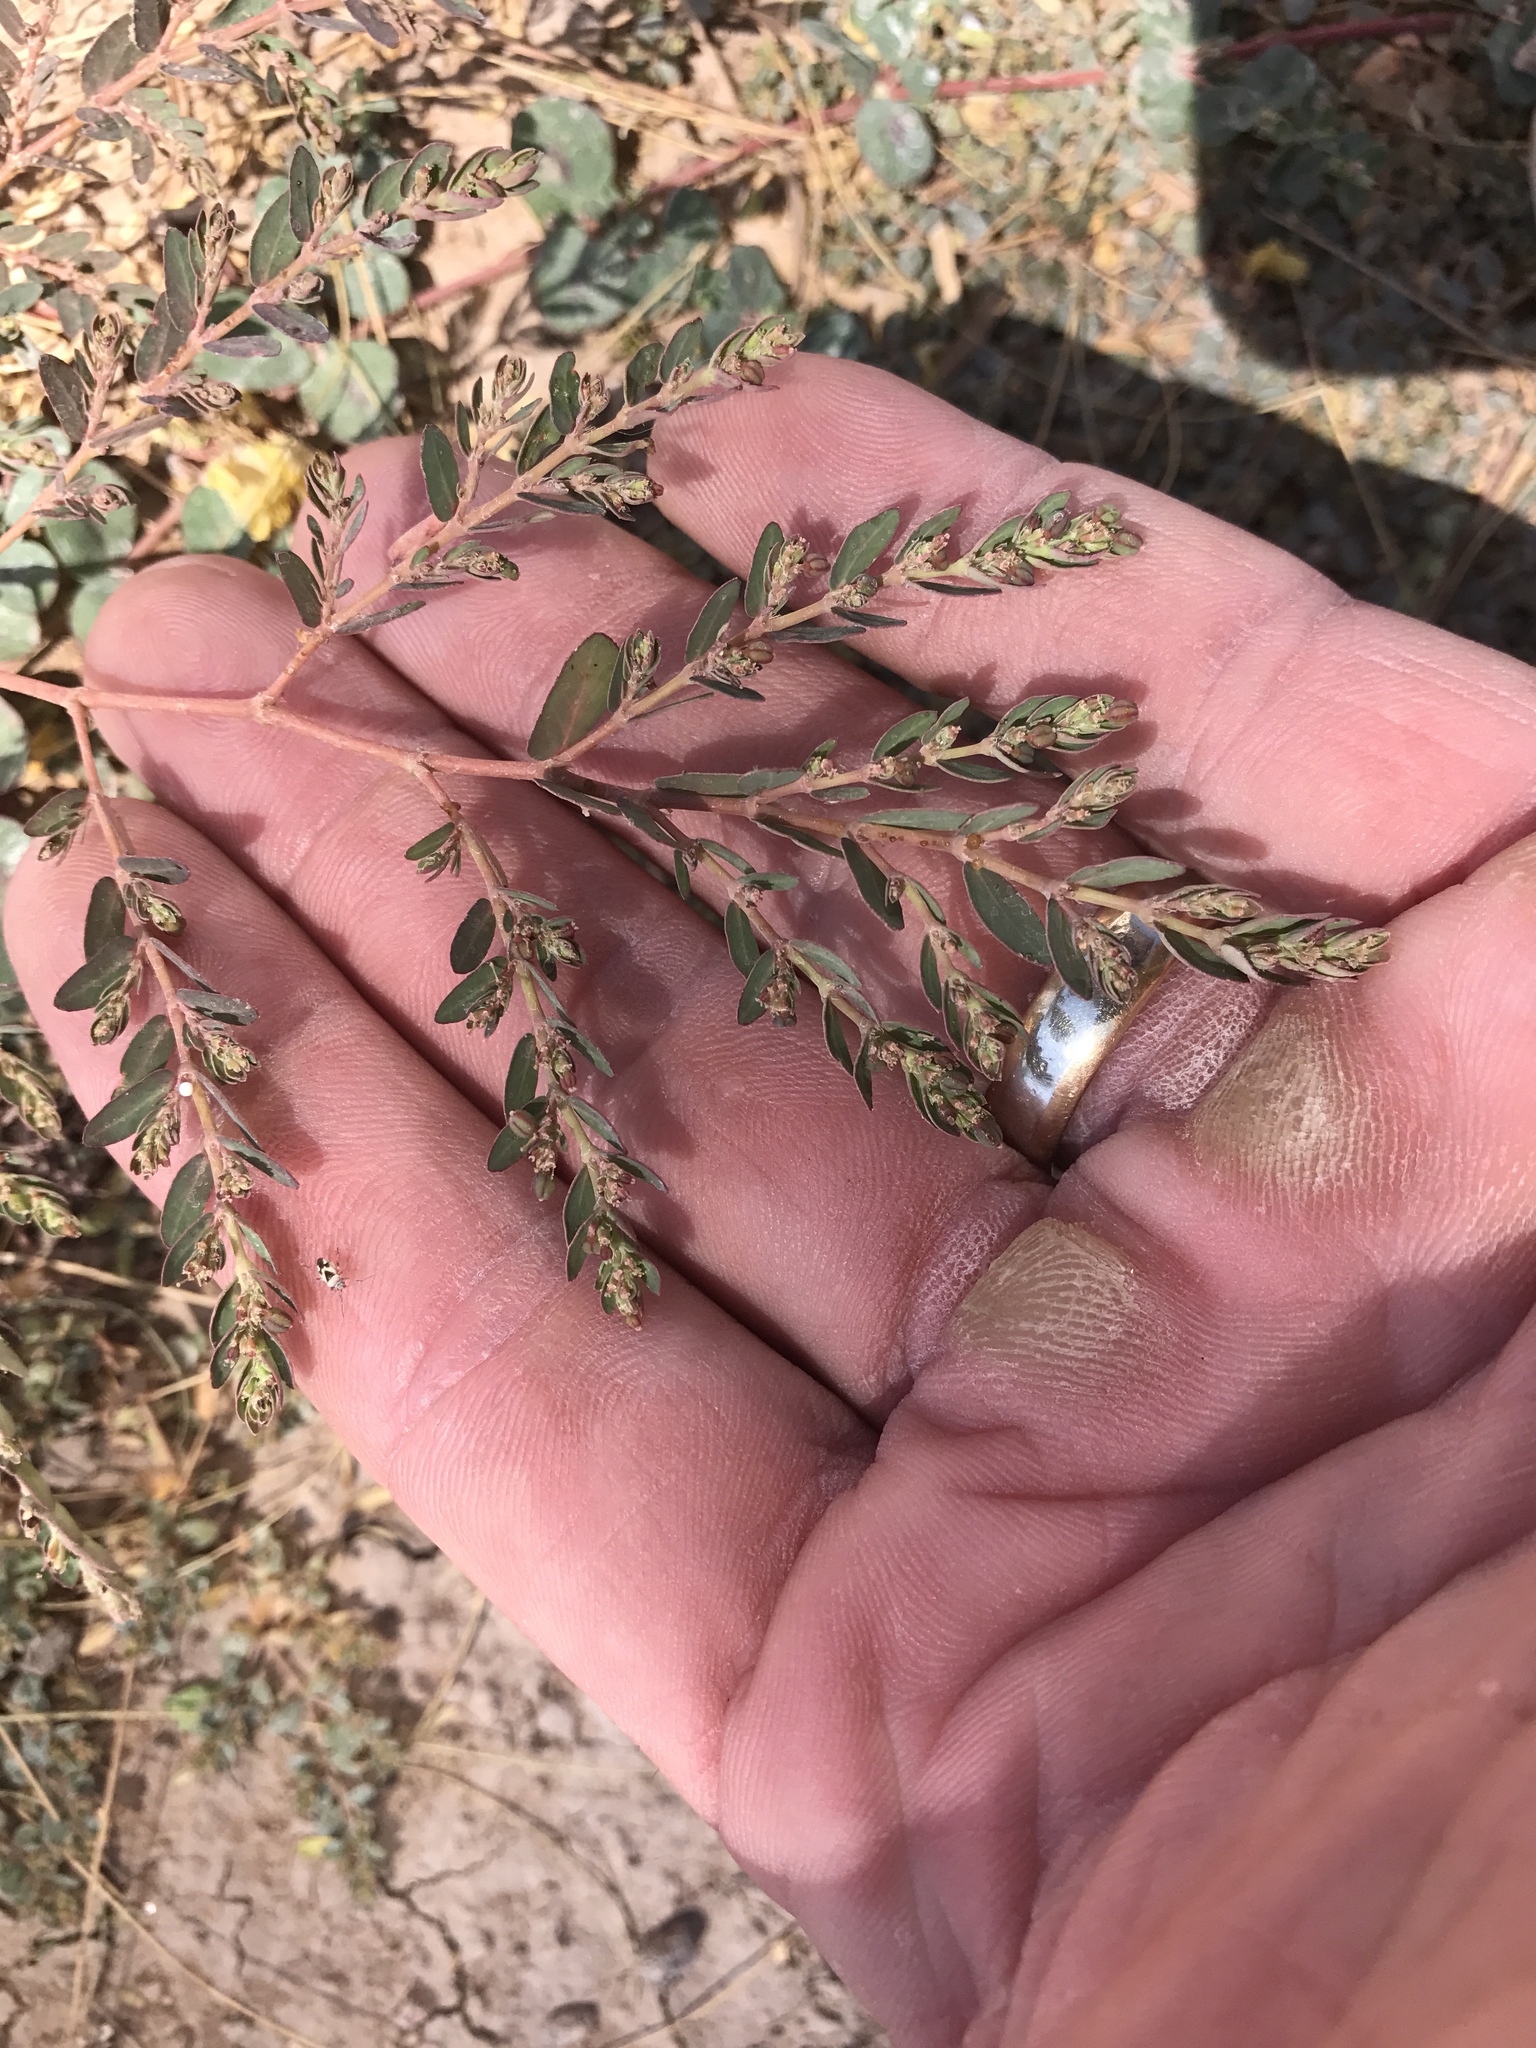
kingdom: Plantae
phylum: Tracheophyta
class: Magnoliopsida
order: Malpighiales
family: Euphorbiaceae
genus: Euphorbia
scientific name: Euphorbia abramsiana
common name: Abram's spurge
